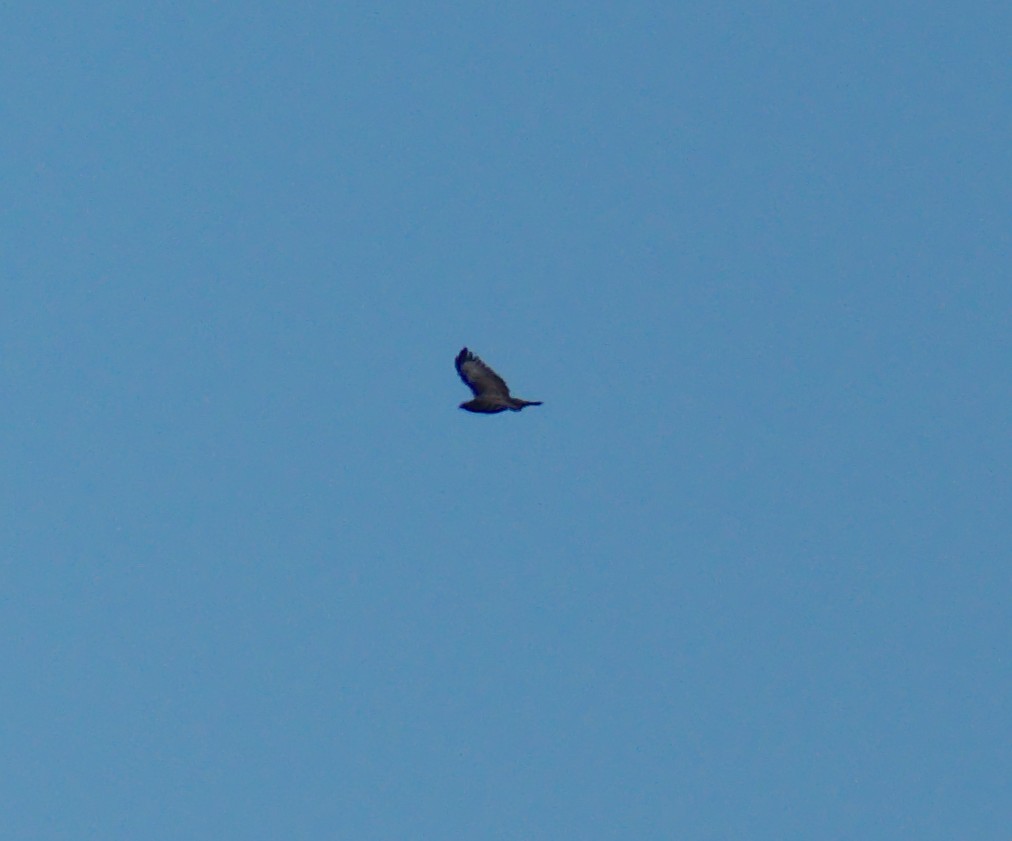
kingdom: Animalia
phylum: Chordata
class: Aves
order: Accipitriformes
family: Accipitridae
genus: Buteo
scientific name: Buteo buteo
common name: Common buzzard
